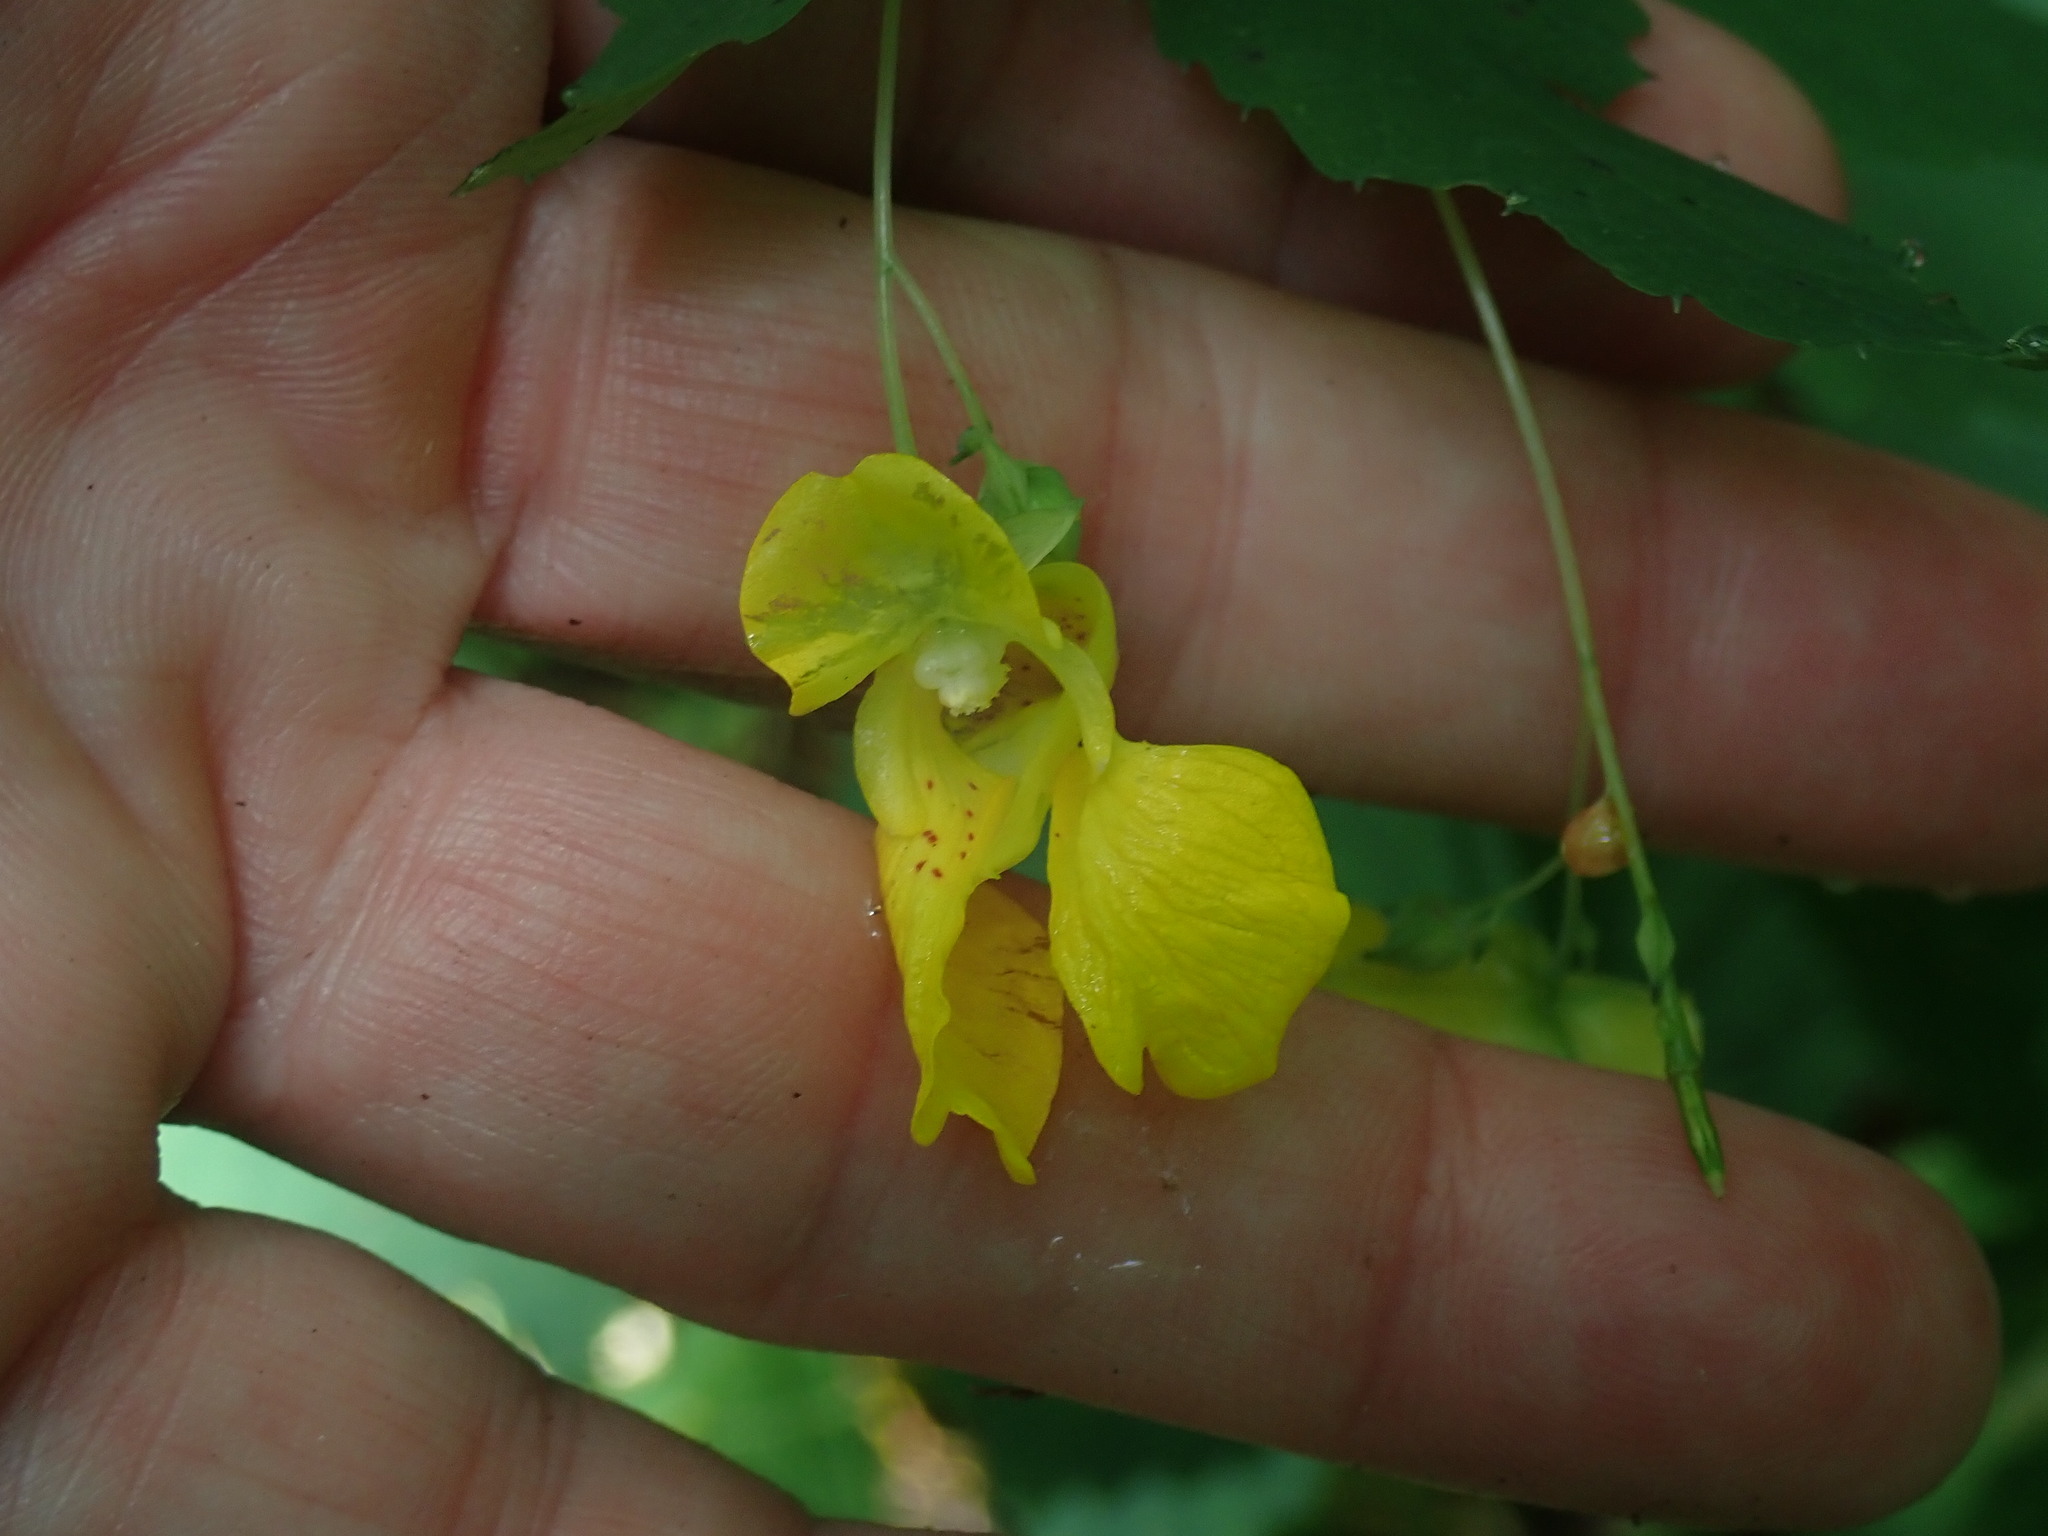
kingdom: Plantae
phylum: Tracheophyta
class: Magnoliopsida
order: Ericales
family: Balsaminaceae
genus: Impatiens
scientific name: Impatiens pallida
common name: Pale snapweed
